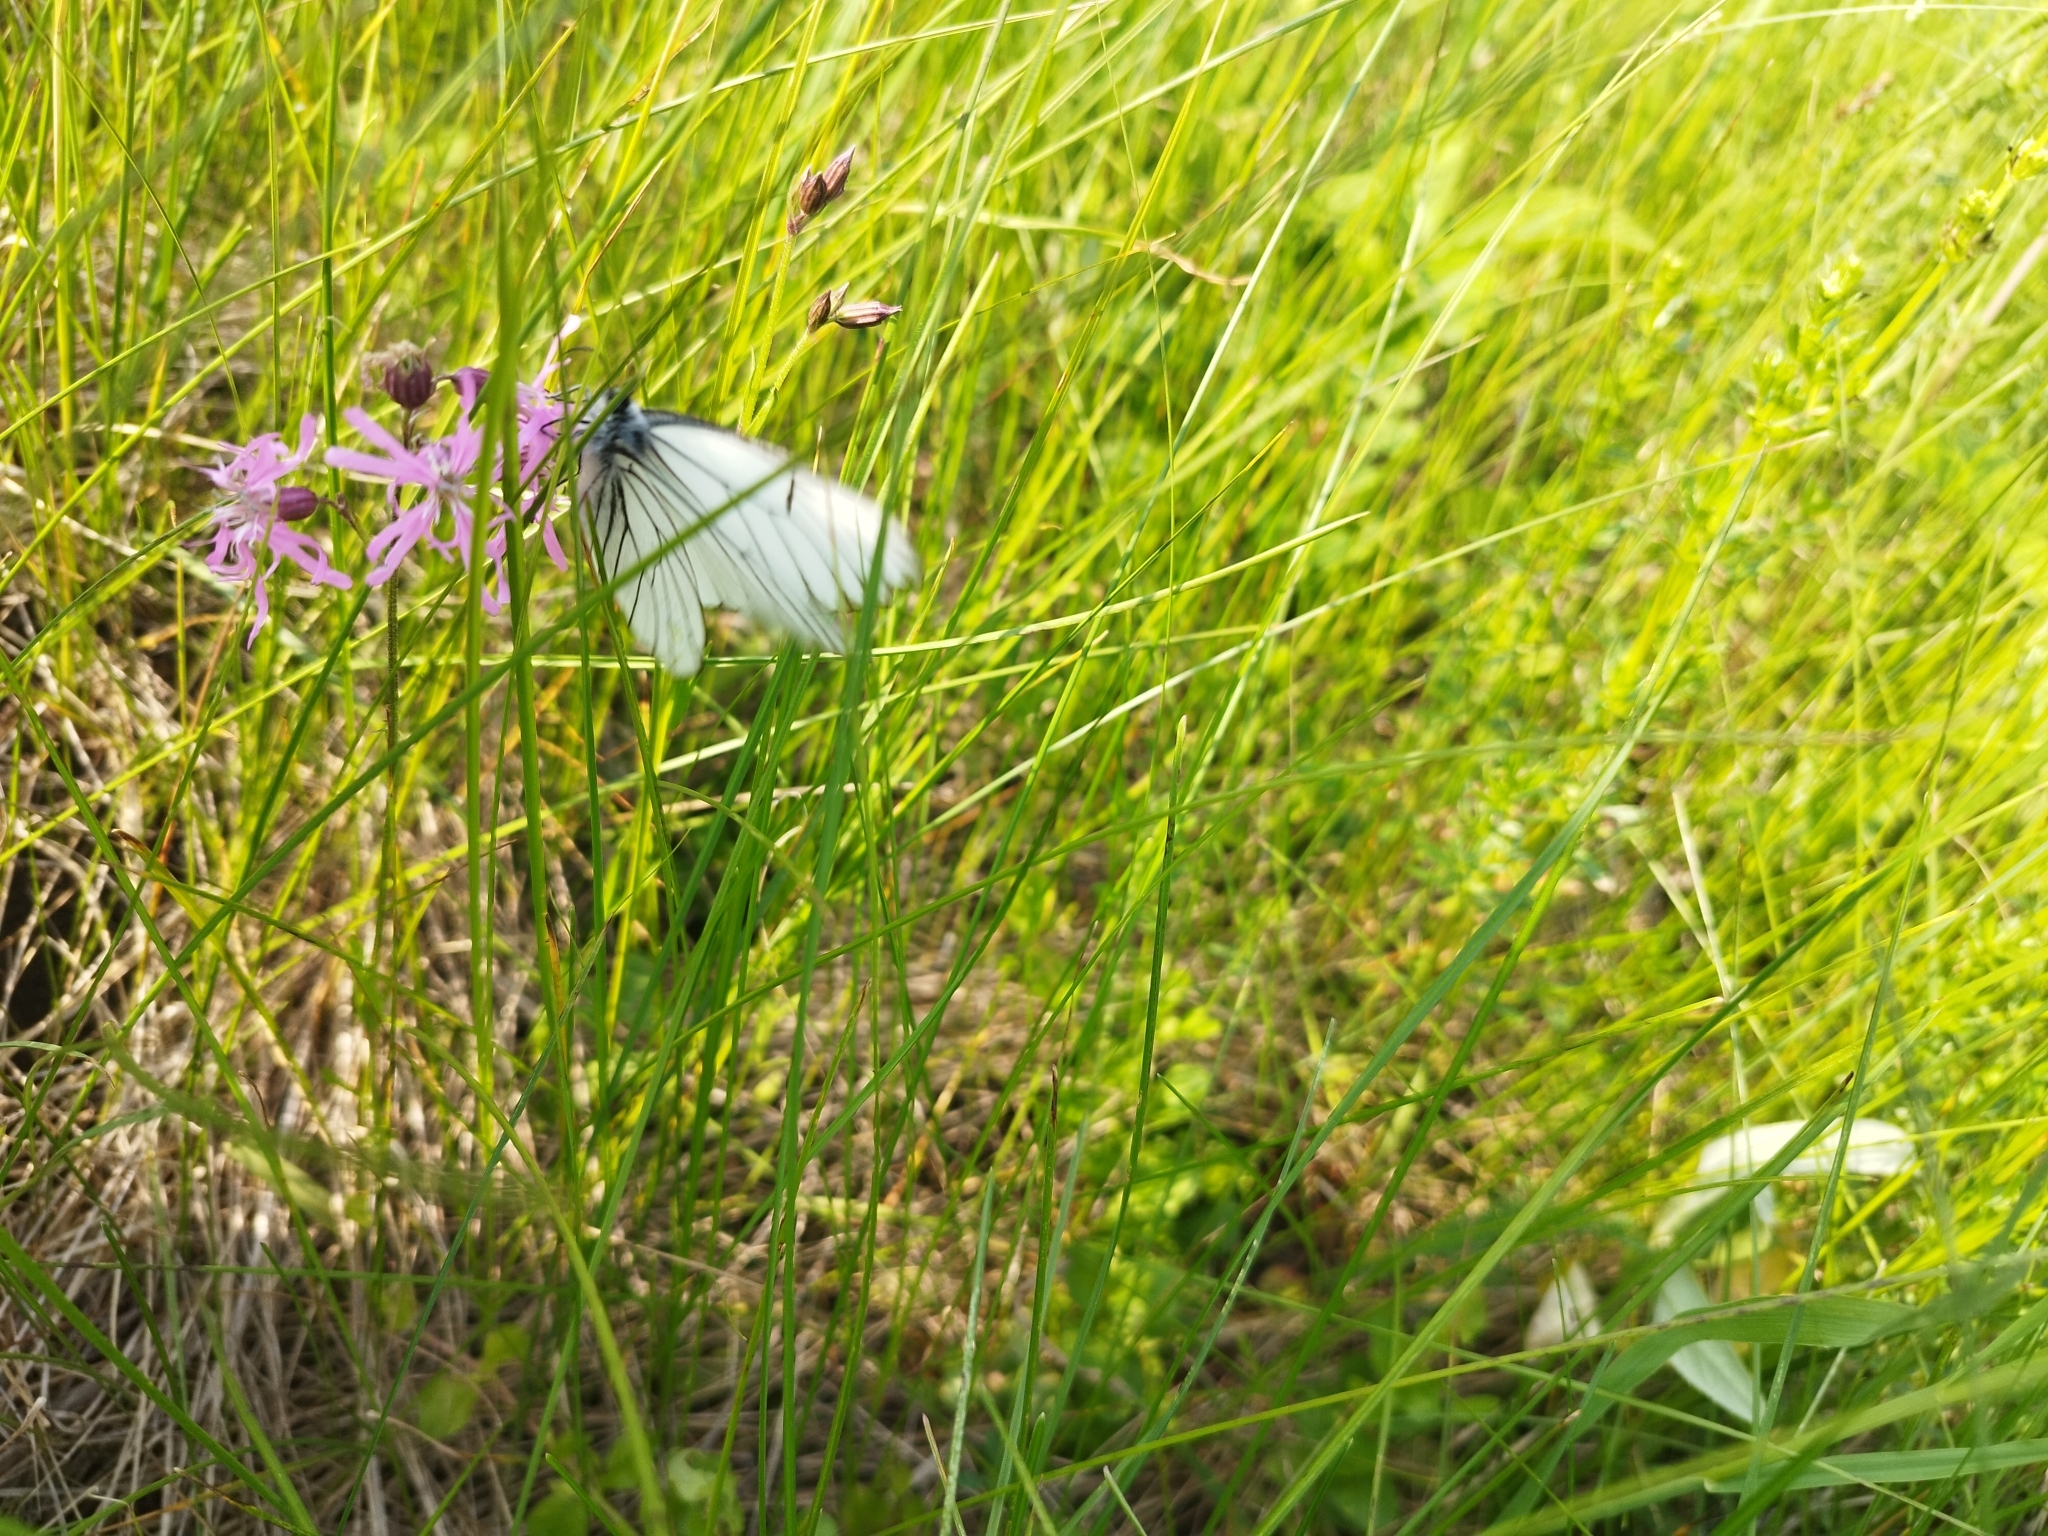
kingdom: Animalia
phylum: Arthropoda
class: Insecta
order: Lepidoptera
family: Pieridae
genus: Aporia
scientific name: Aporia crataegi
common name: Black-veined white
